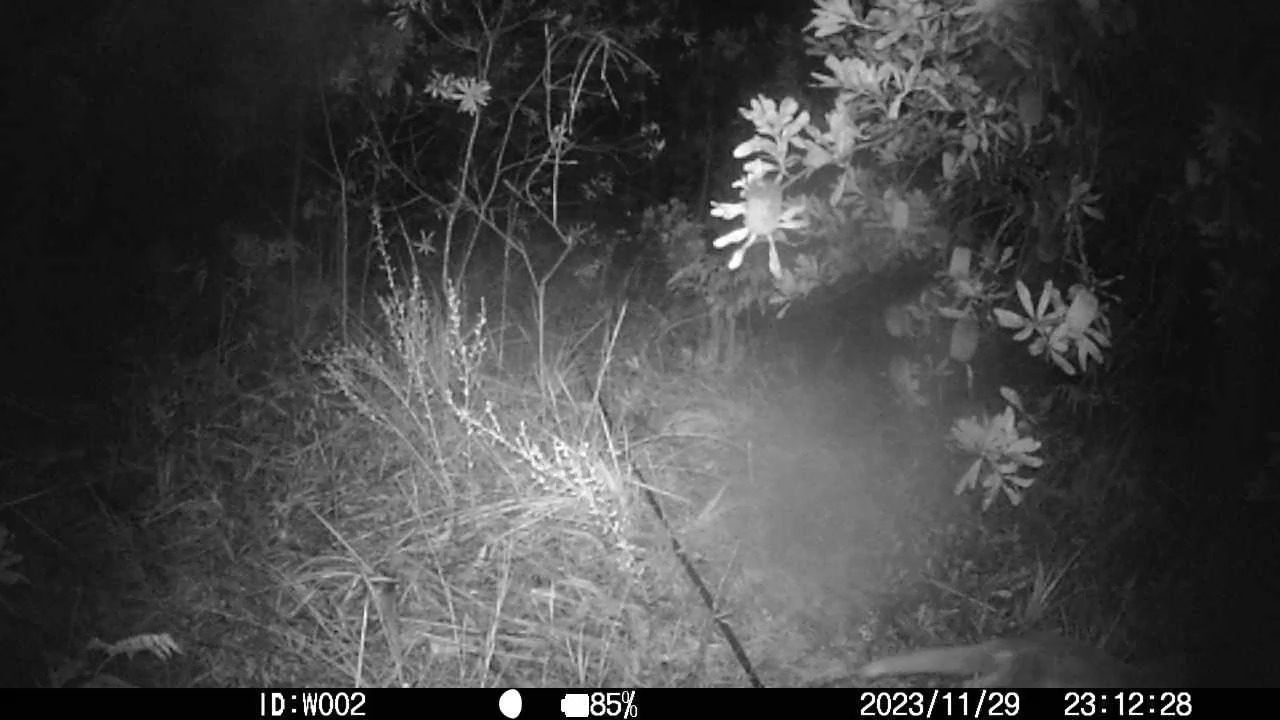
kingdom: Animalia
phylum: Chordata
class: Mammalia
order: Carnivora
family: Canidae
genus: Vulpes
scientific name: Vulpes vulpes
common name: Red fox
